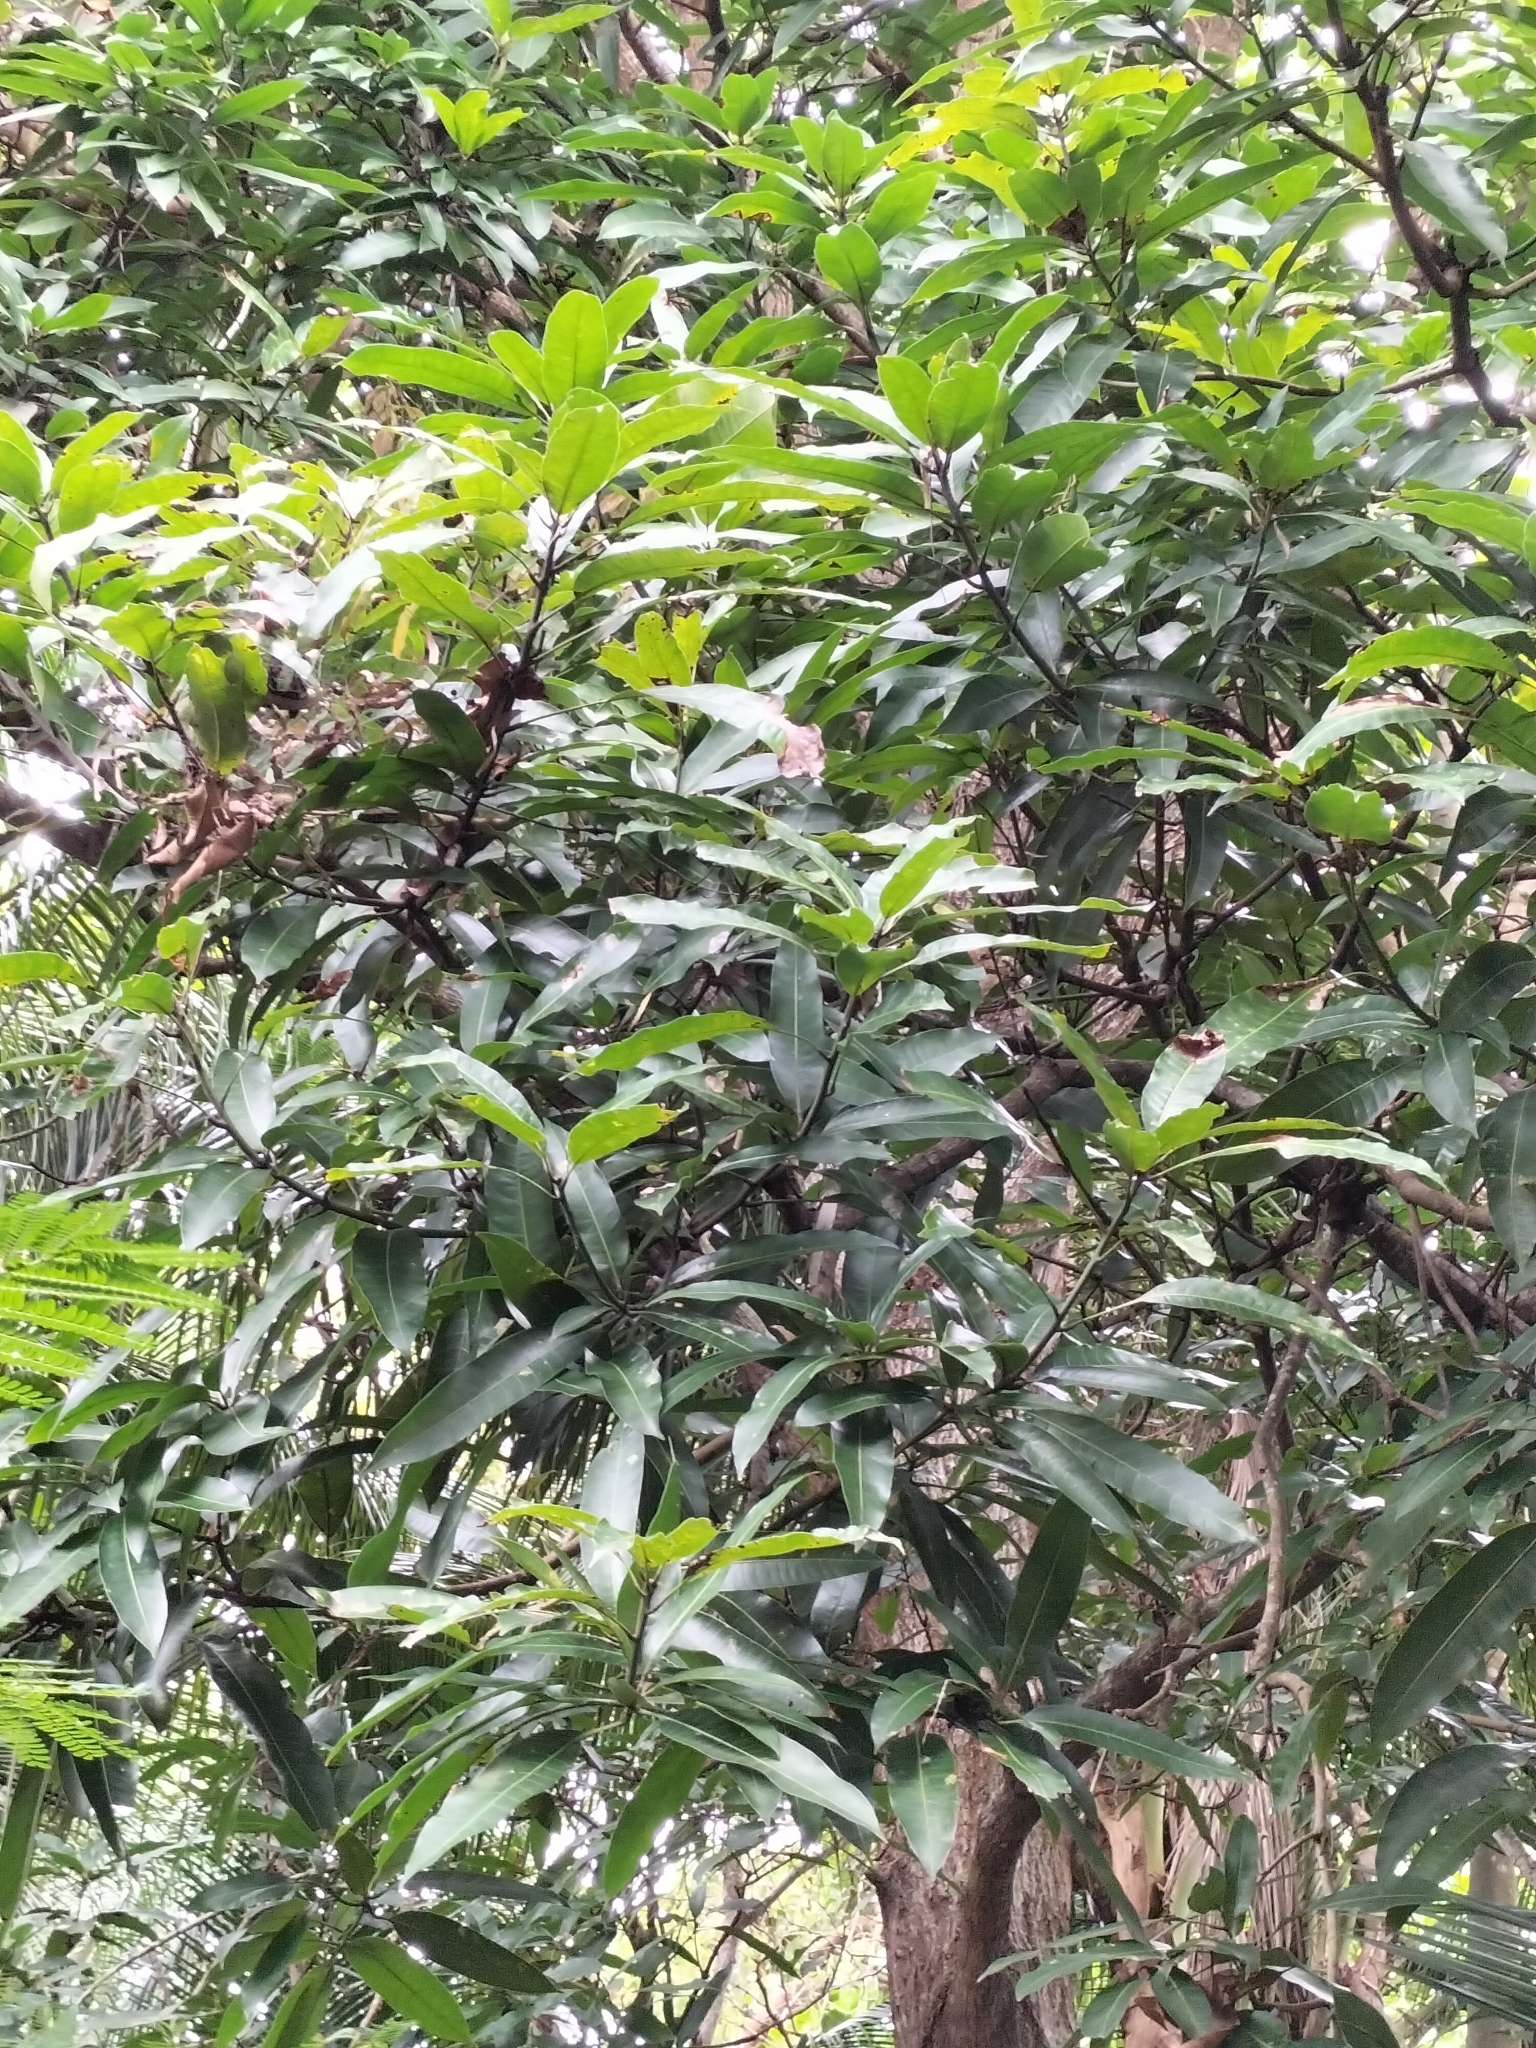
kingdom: Plantae
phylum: Tracheophyta
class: Magnoliopsida
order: Sapindales
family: Anacardiaceae
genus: Mangifera
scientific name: Mangifera indica
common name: Mango
